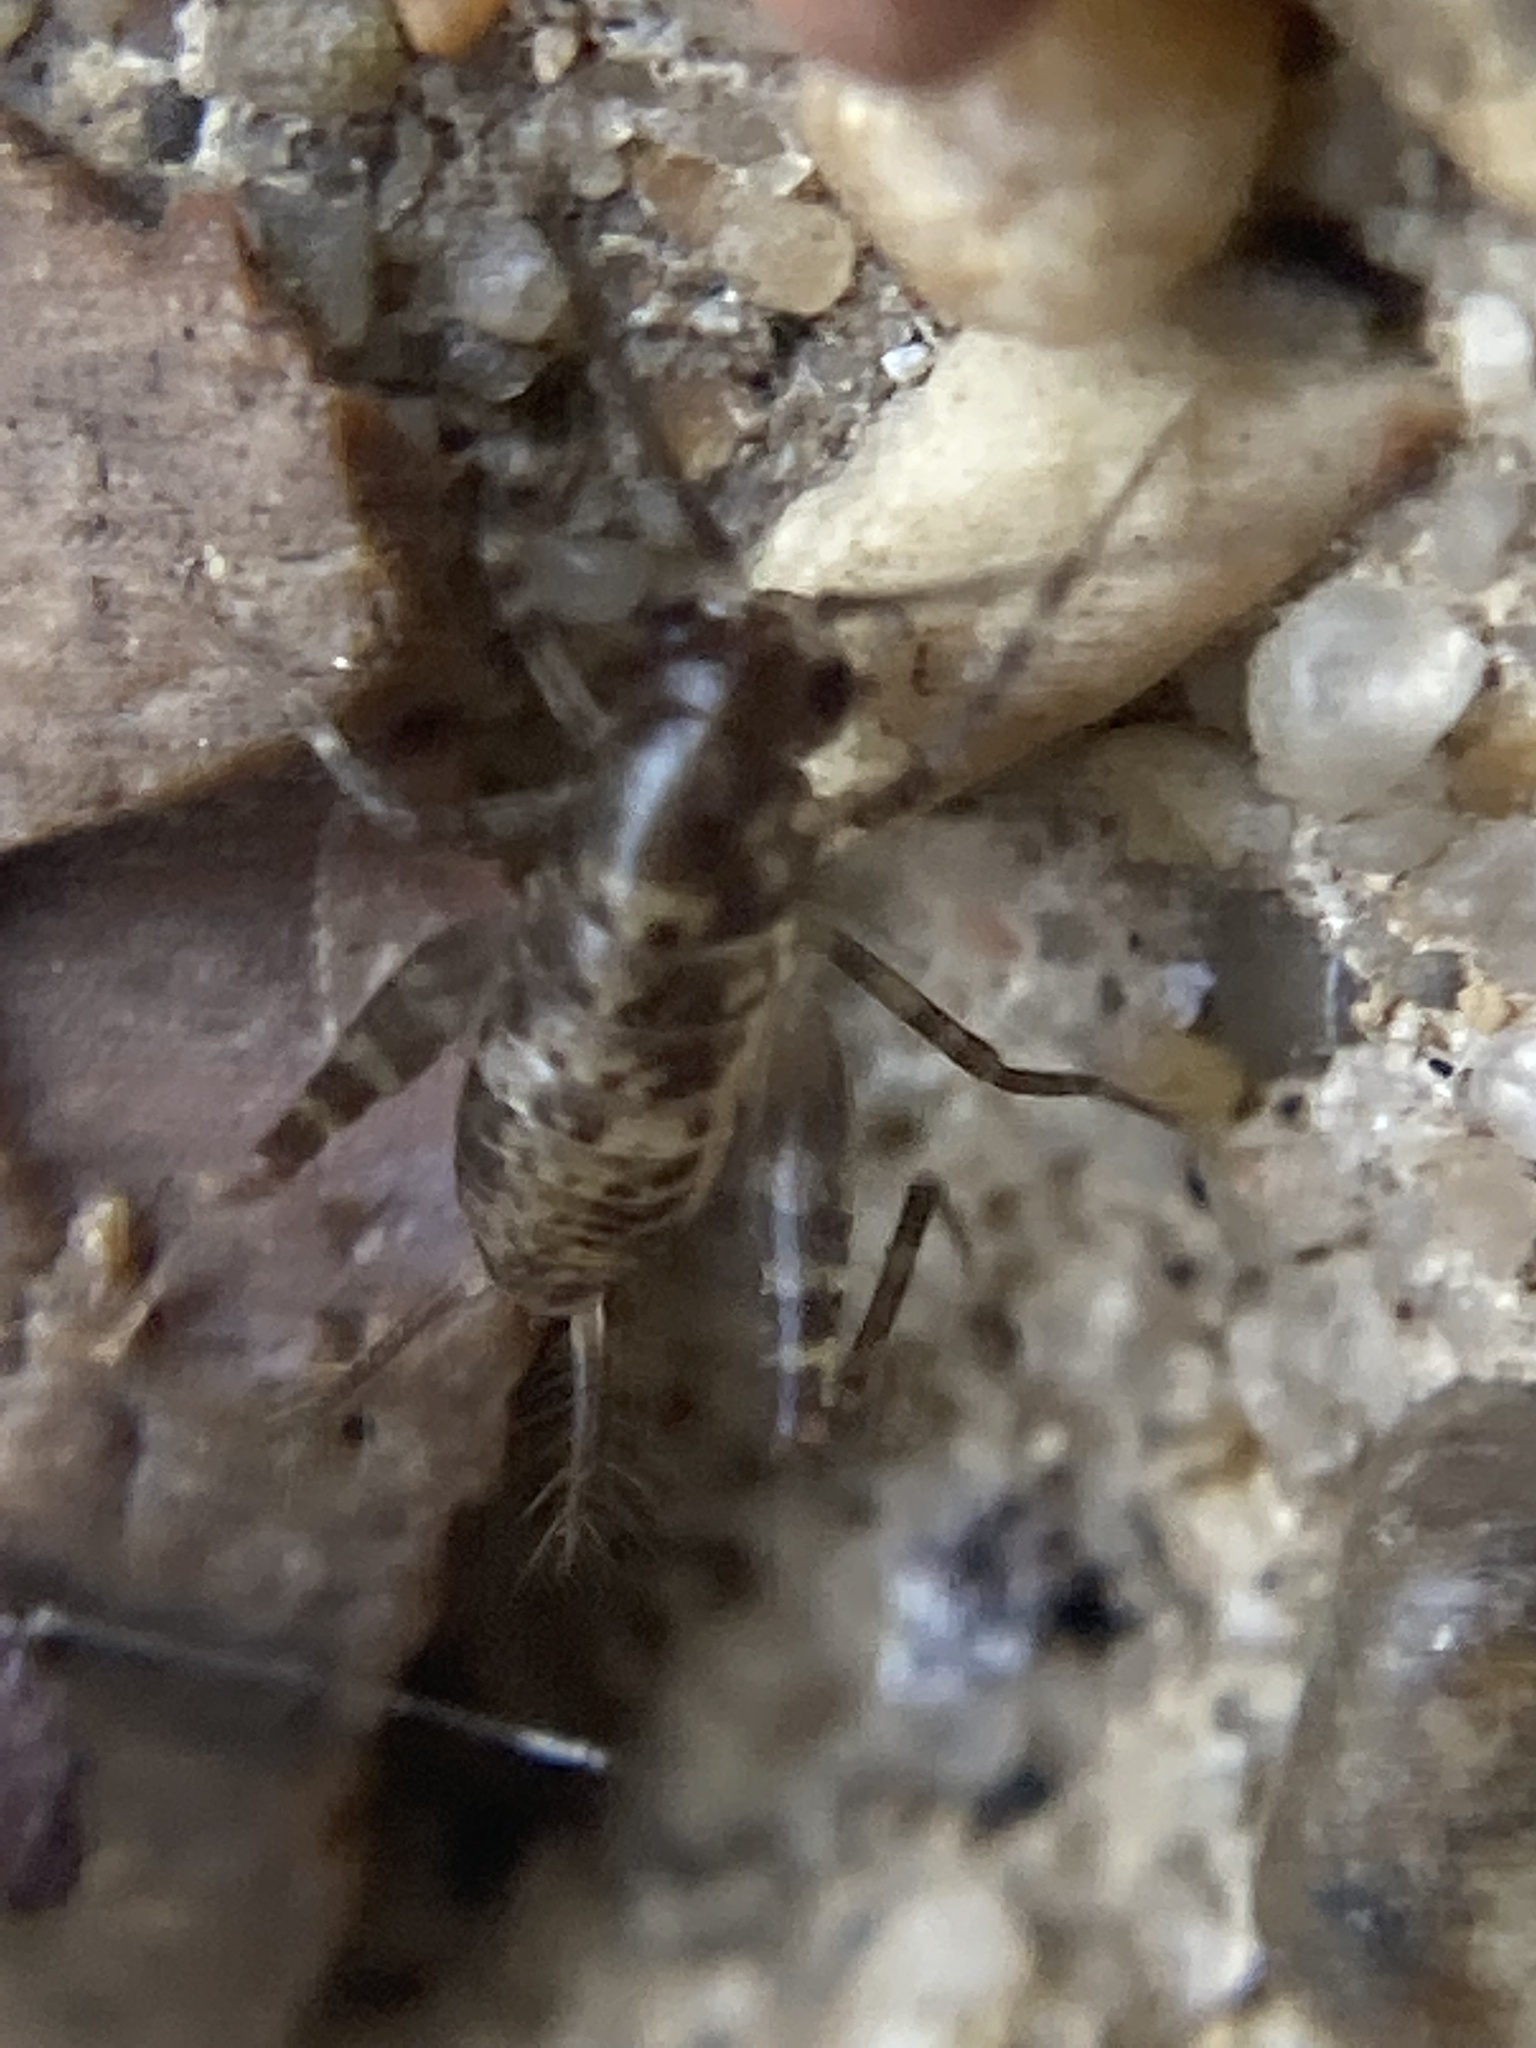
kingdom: Animalia
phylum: Arthropoda
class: Insecta
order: Orthoptera
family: Rhaphidophoridae
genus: Tachycines
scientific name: Tachycines asynamorus
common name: Greenhouse camel cricket
